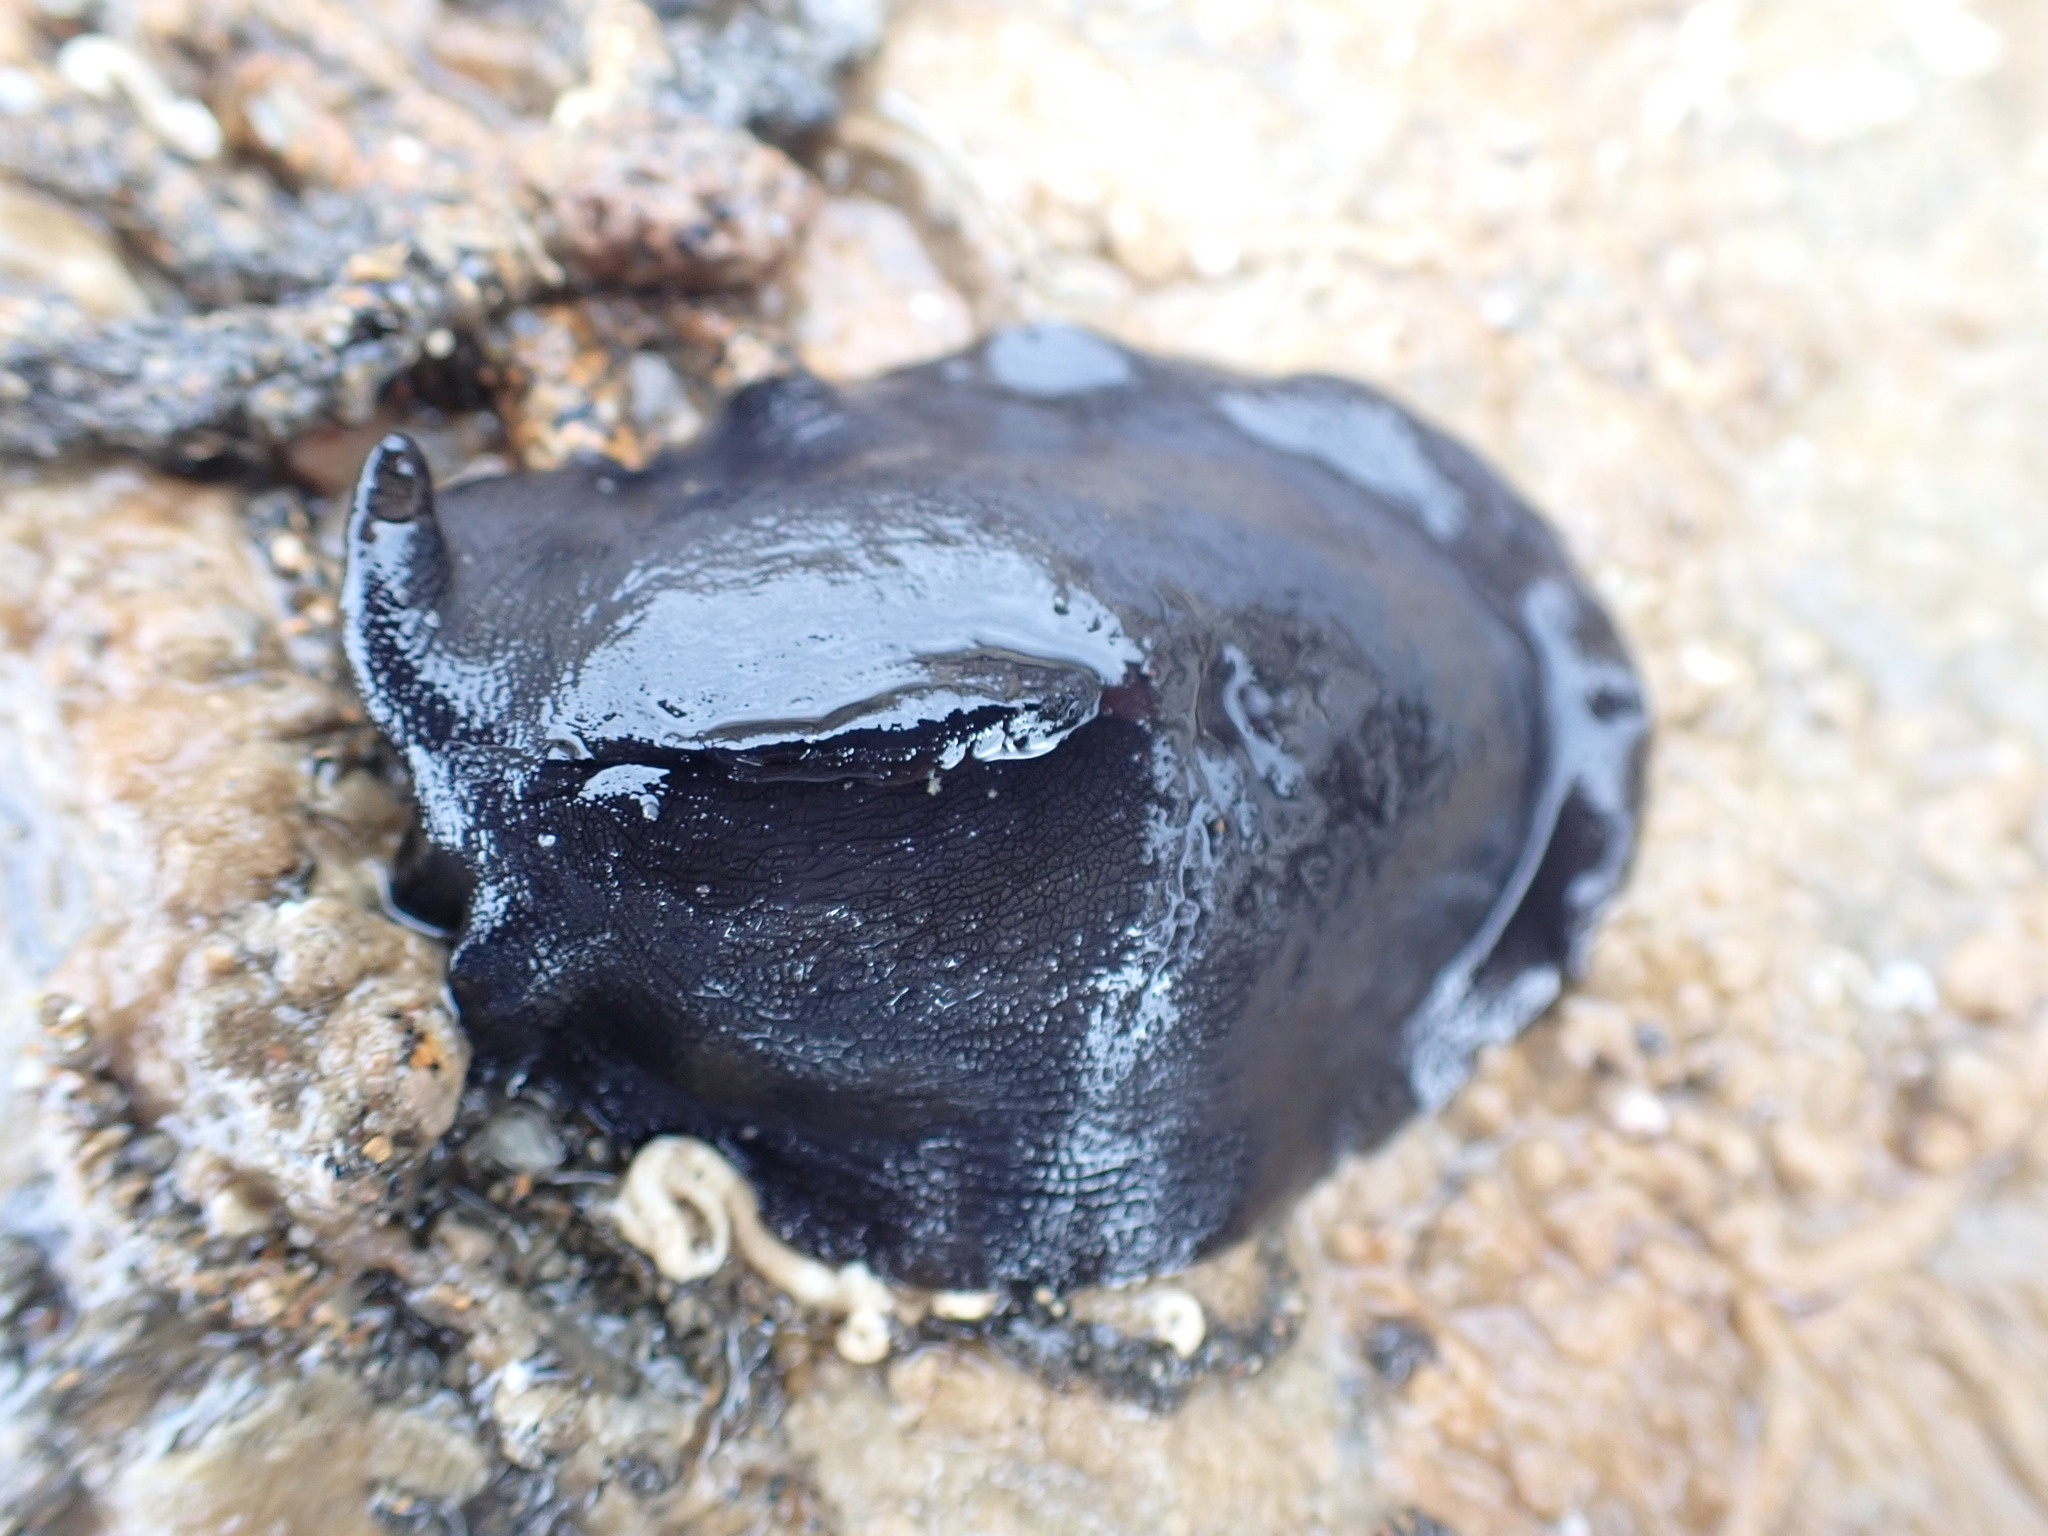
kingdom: Animalia
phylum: Mollusca
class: Gastropoda
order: Lepetellida
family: Fissurellidae
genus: Scutus
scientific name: Scutus breviculus
